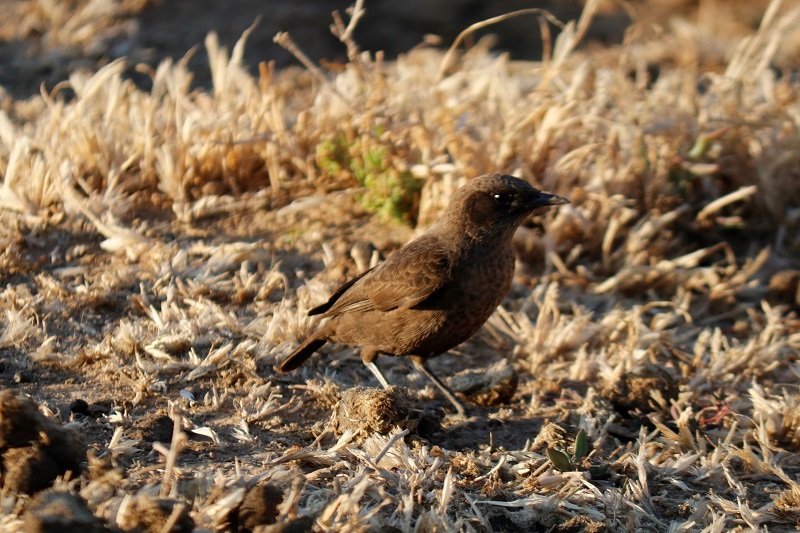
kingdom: Animalia
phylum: Chordata
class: Aves
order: Passeriformes
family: Muscicapidae
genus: Myrmecocichla
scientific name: Myrmecocichla formicivora
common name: Ant-eating chat
